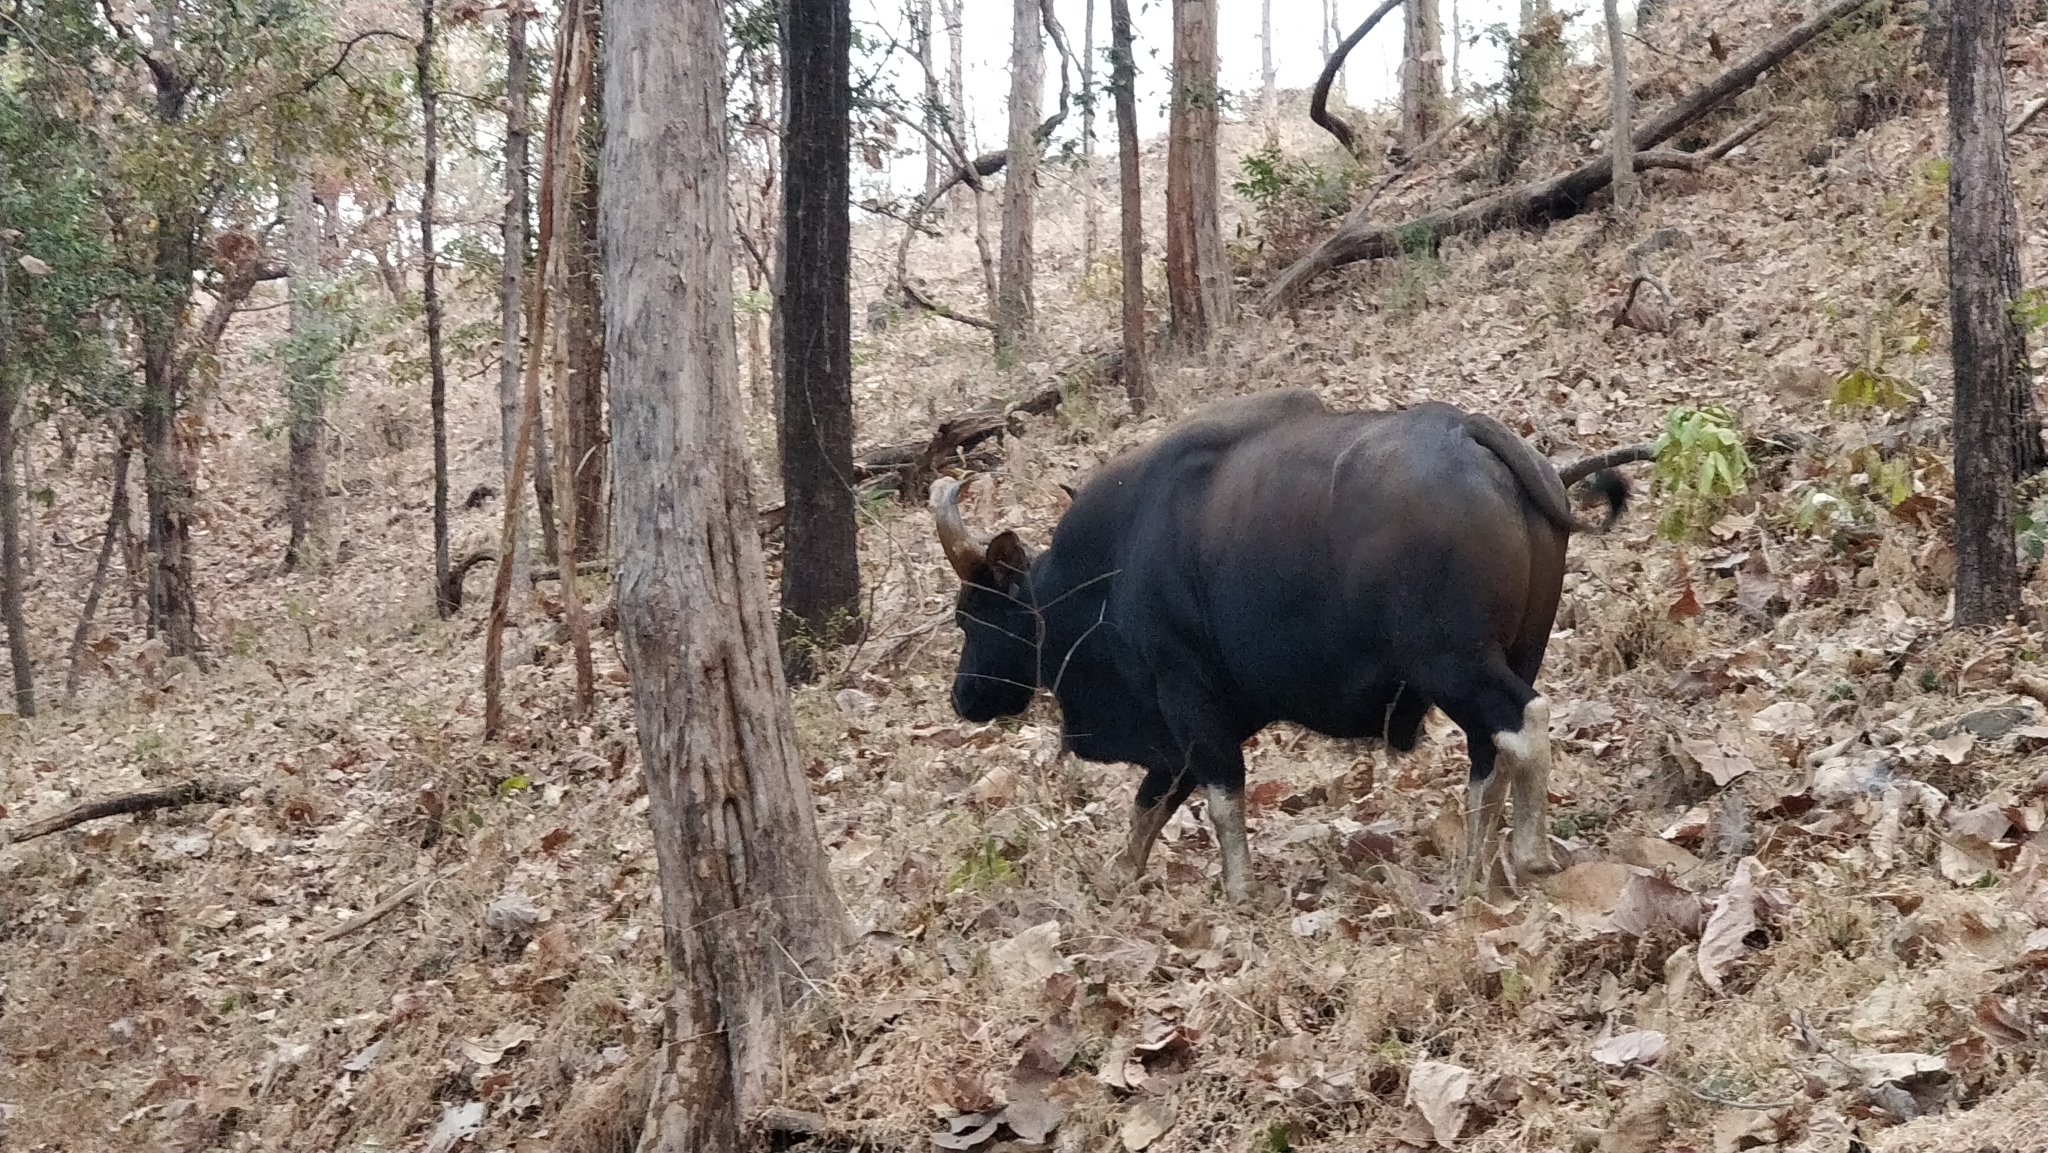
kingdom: Animalia
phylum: Chordata
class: Mammalia
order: Artiodactyla
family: Bovidae
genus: Bos
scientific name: Bos frontalis
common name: Gaur
